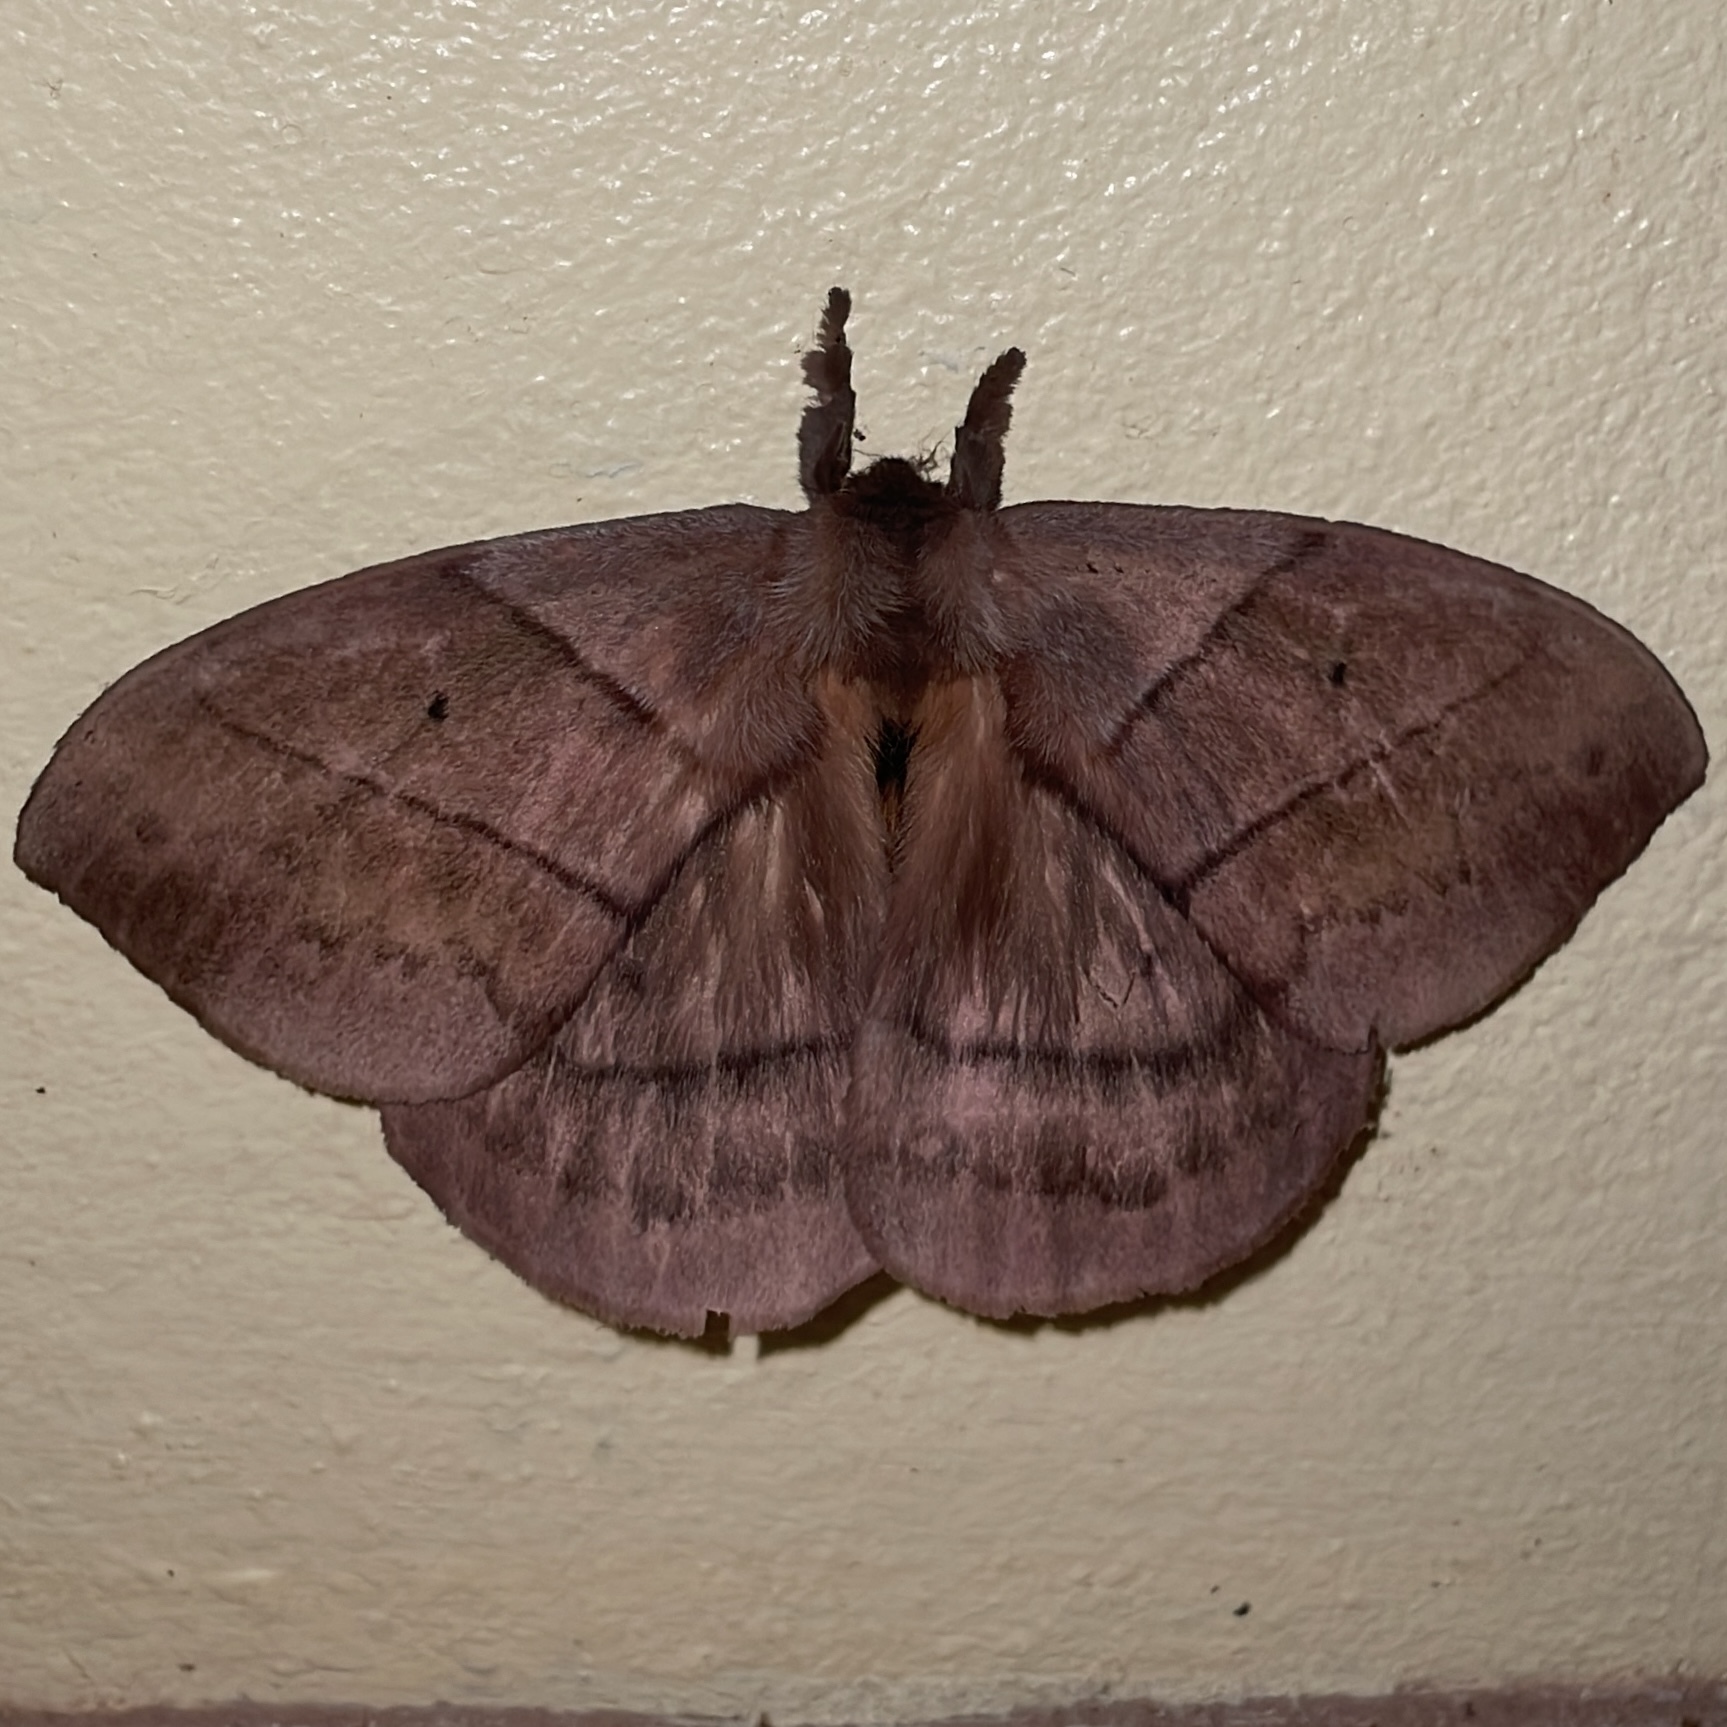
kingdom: Animalia
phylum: Arthropoda
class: Insecta
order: Lepidoptera
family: Saturniidae
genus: Periphoba
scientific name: Periphoba augur
